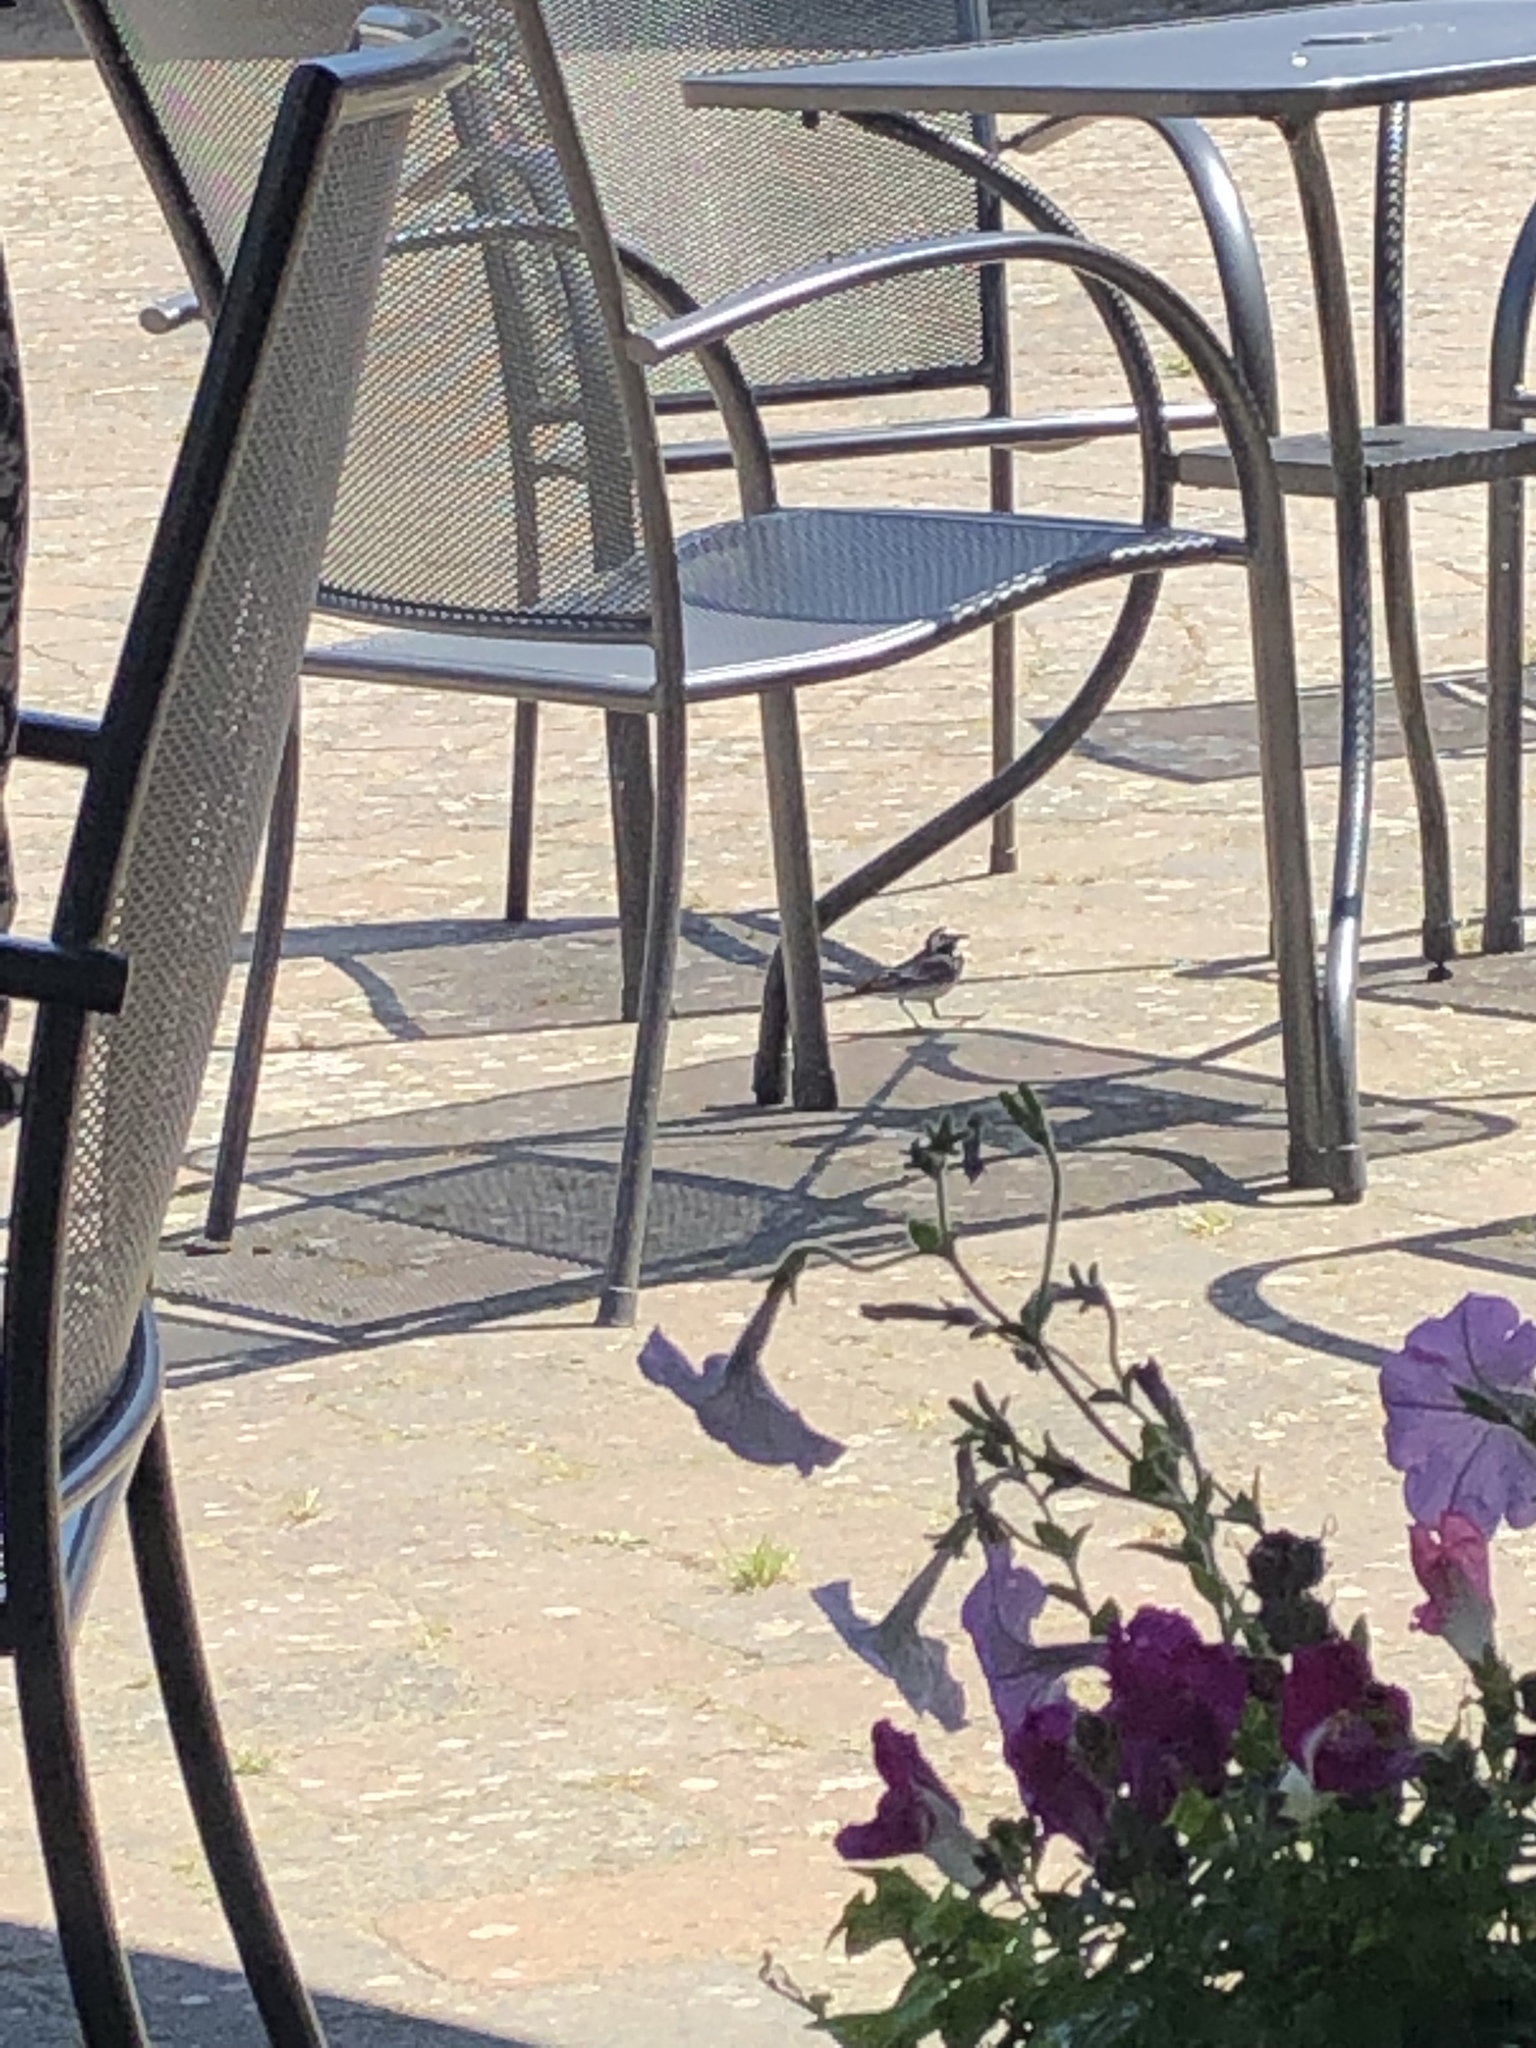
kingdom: Animalia
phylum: Chordata
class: Aves
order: Passeriformes
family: Motacillidae
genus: Motacilla
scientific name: Motacilla alba
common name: White wagtail
